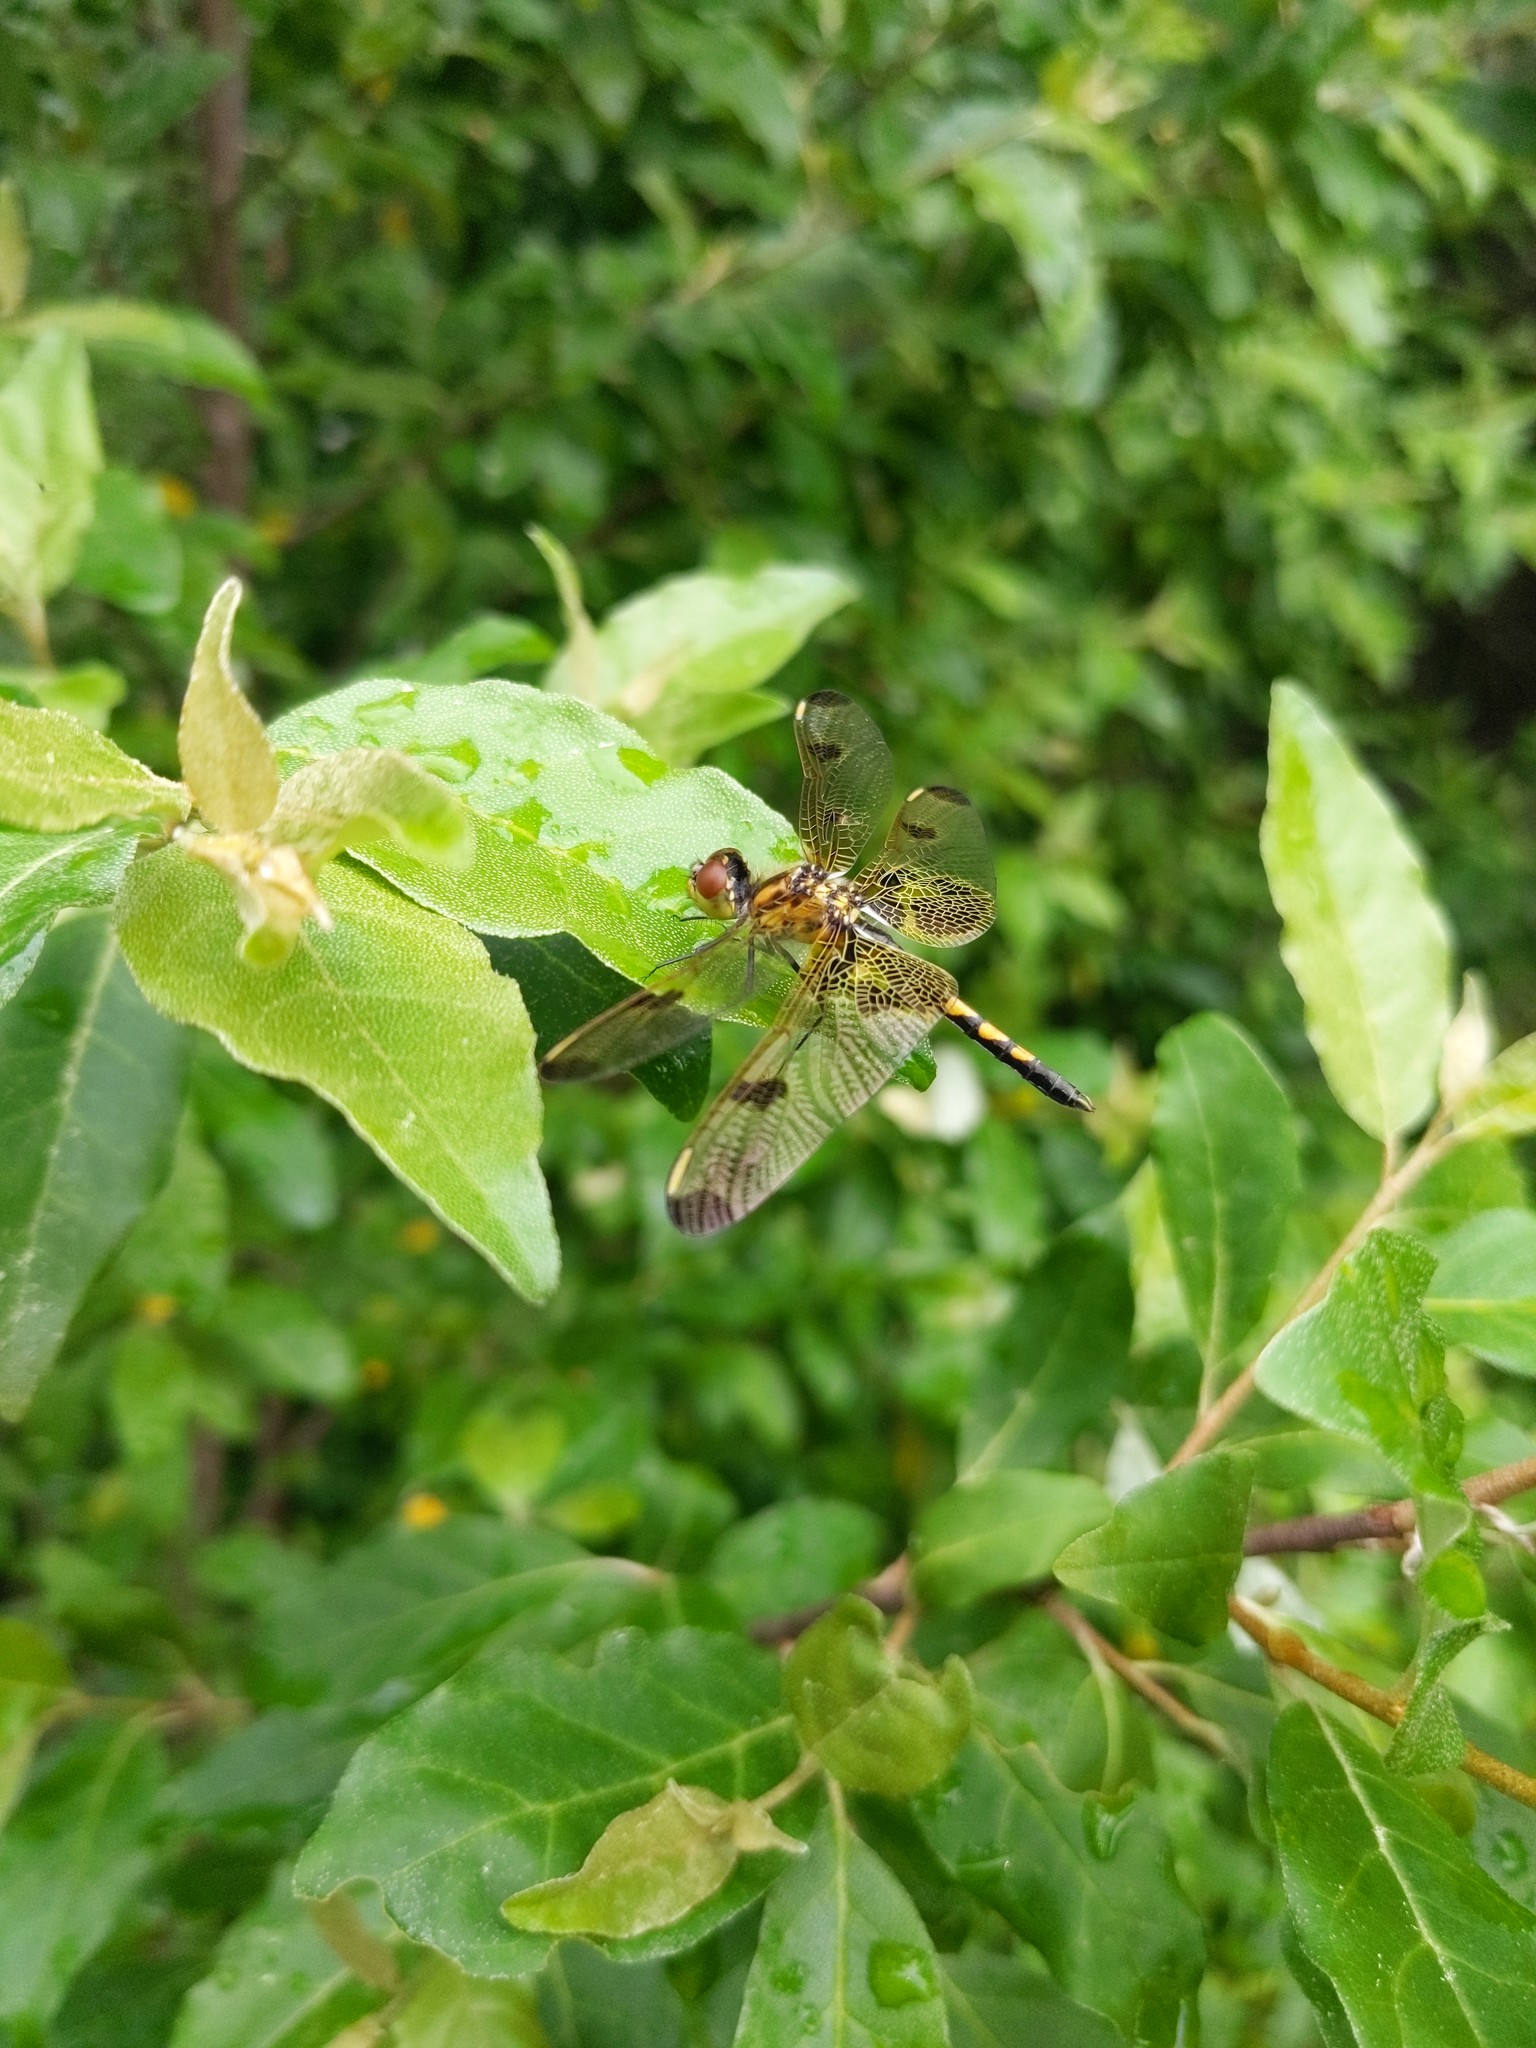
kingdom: Animalia
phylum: Arthropoda
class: Insecta
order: Odonata
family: Libellulidae
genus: Celithemis
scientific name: Celithemis elisa
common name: Calico pennant
